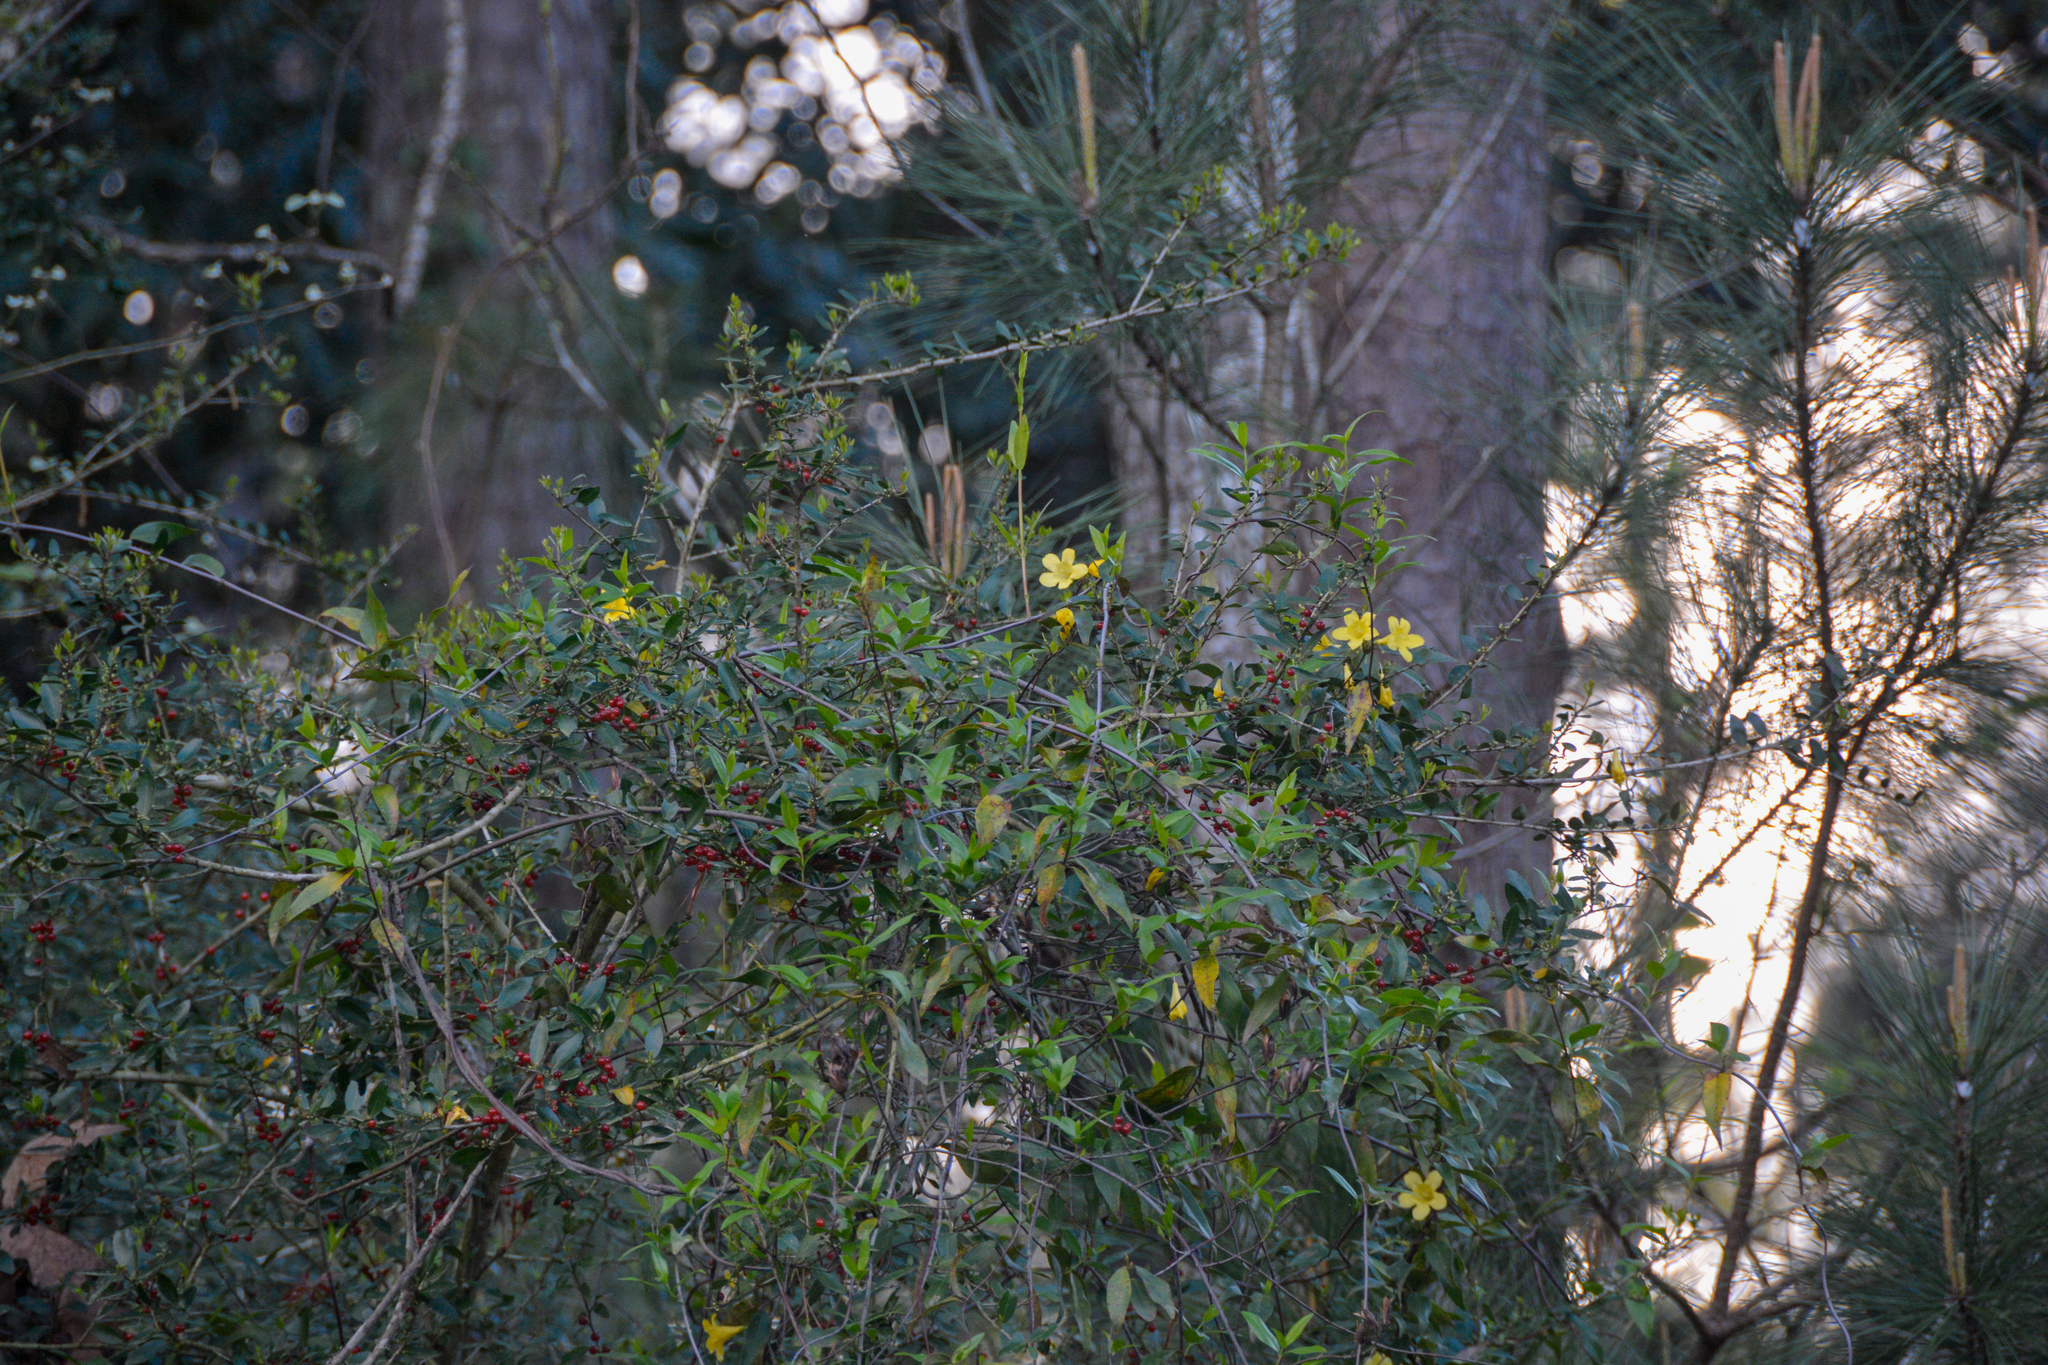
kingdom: Plantae
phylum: Tracheophyta
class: Magnoliopsida
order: Gentianales
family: Gelsemiaceae
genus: Gelsemium
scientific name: Gelsemium sempervirens
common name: Carolina-jasmine
